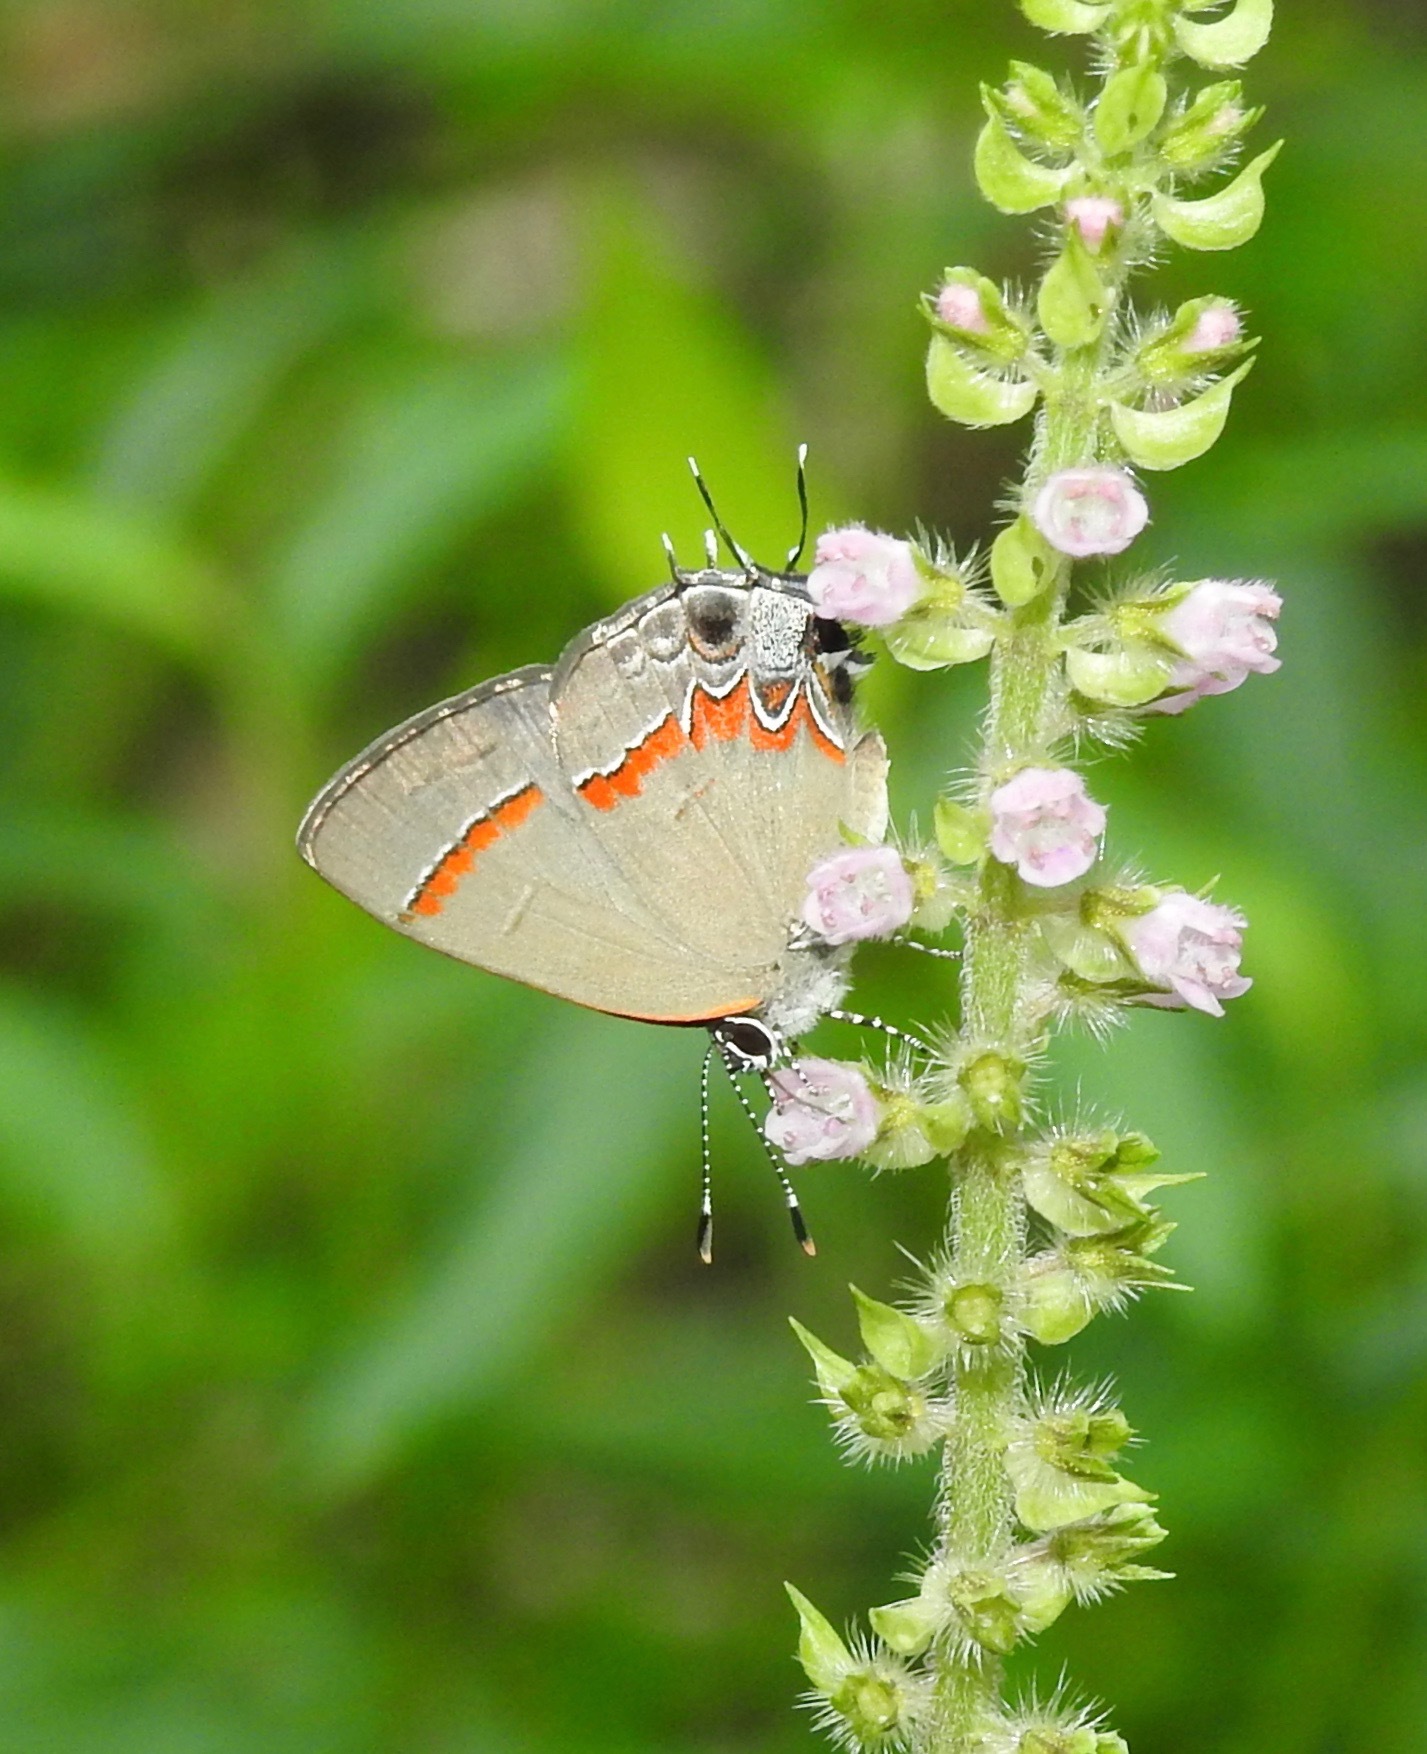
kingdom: Animalia
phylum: Arthropoda
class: Insecta
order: Lepidoptera
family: Lycaenidae
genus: Calycopis
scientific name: Calycopis cecrops
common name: Red-banded hairstreak
